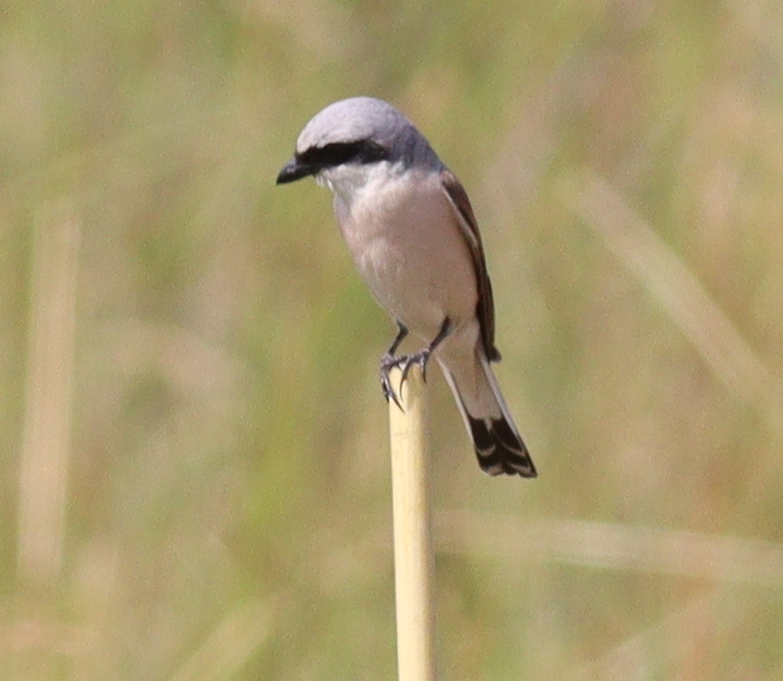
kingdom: Animalia
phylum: Chordata
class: Aves
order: Passeriformes
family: Laniidae
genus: Lanius
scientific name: Lanius collurio
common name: Red-backed shrike
